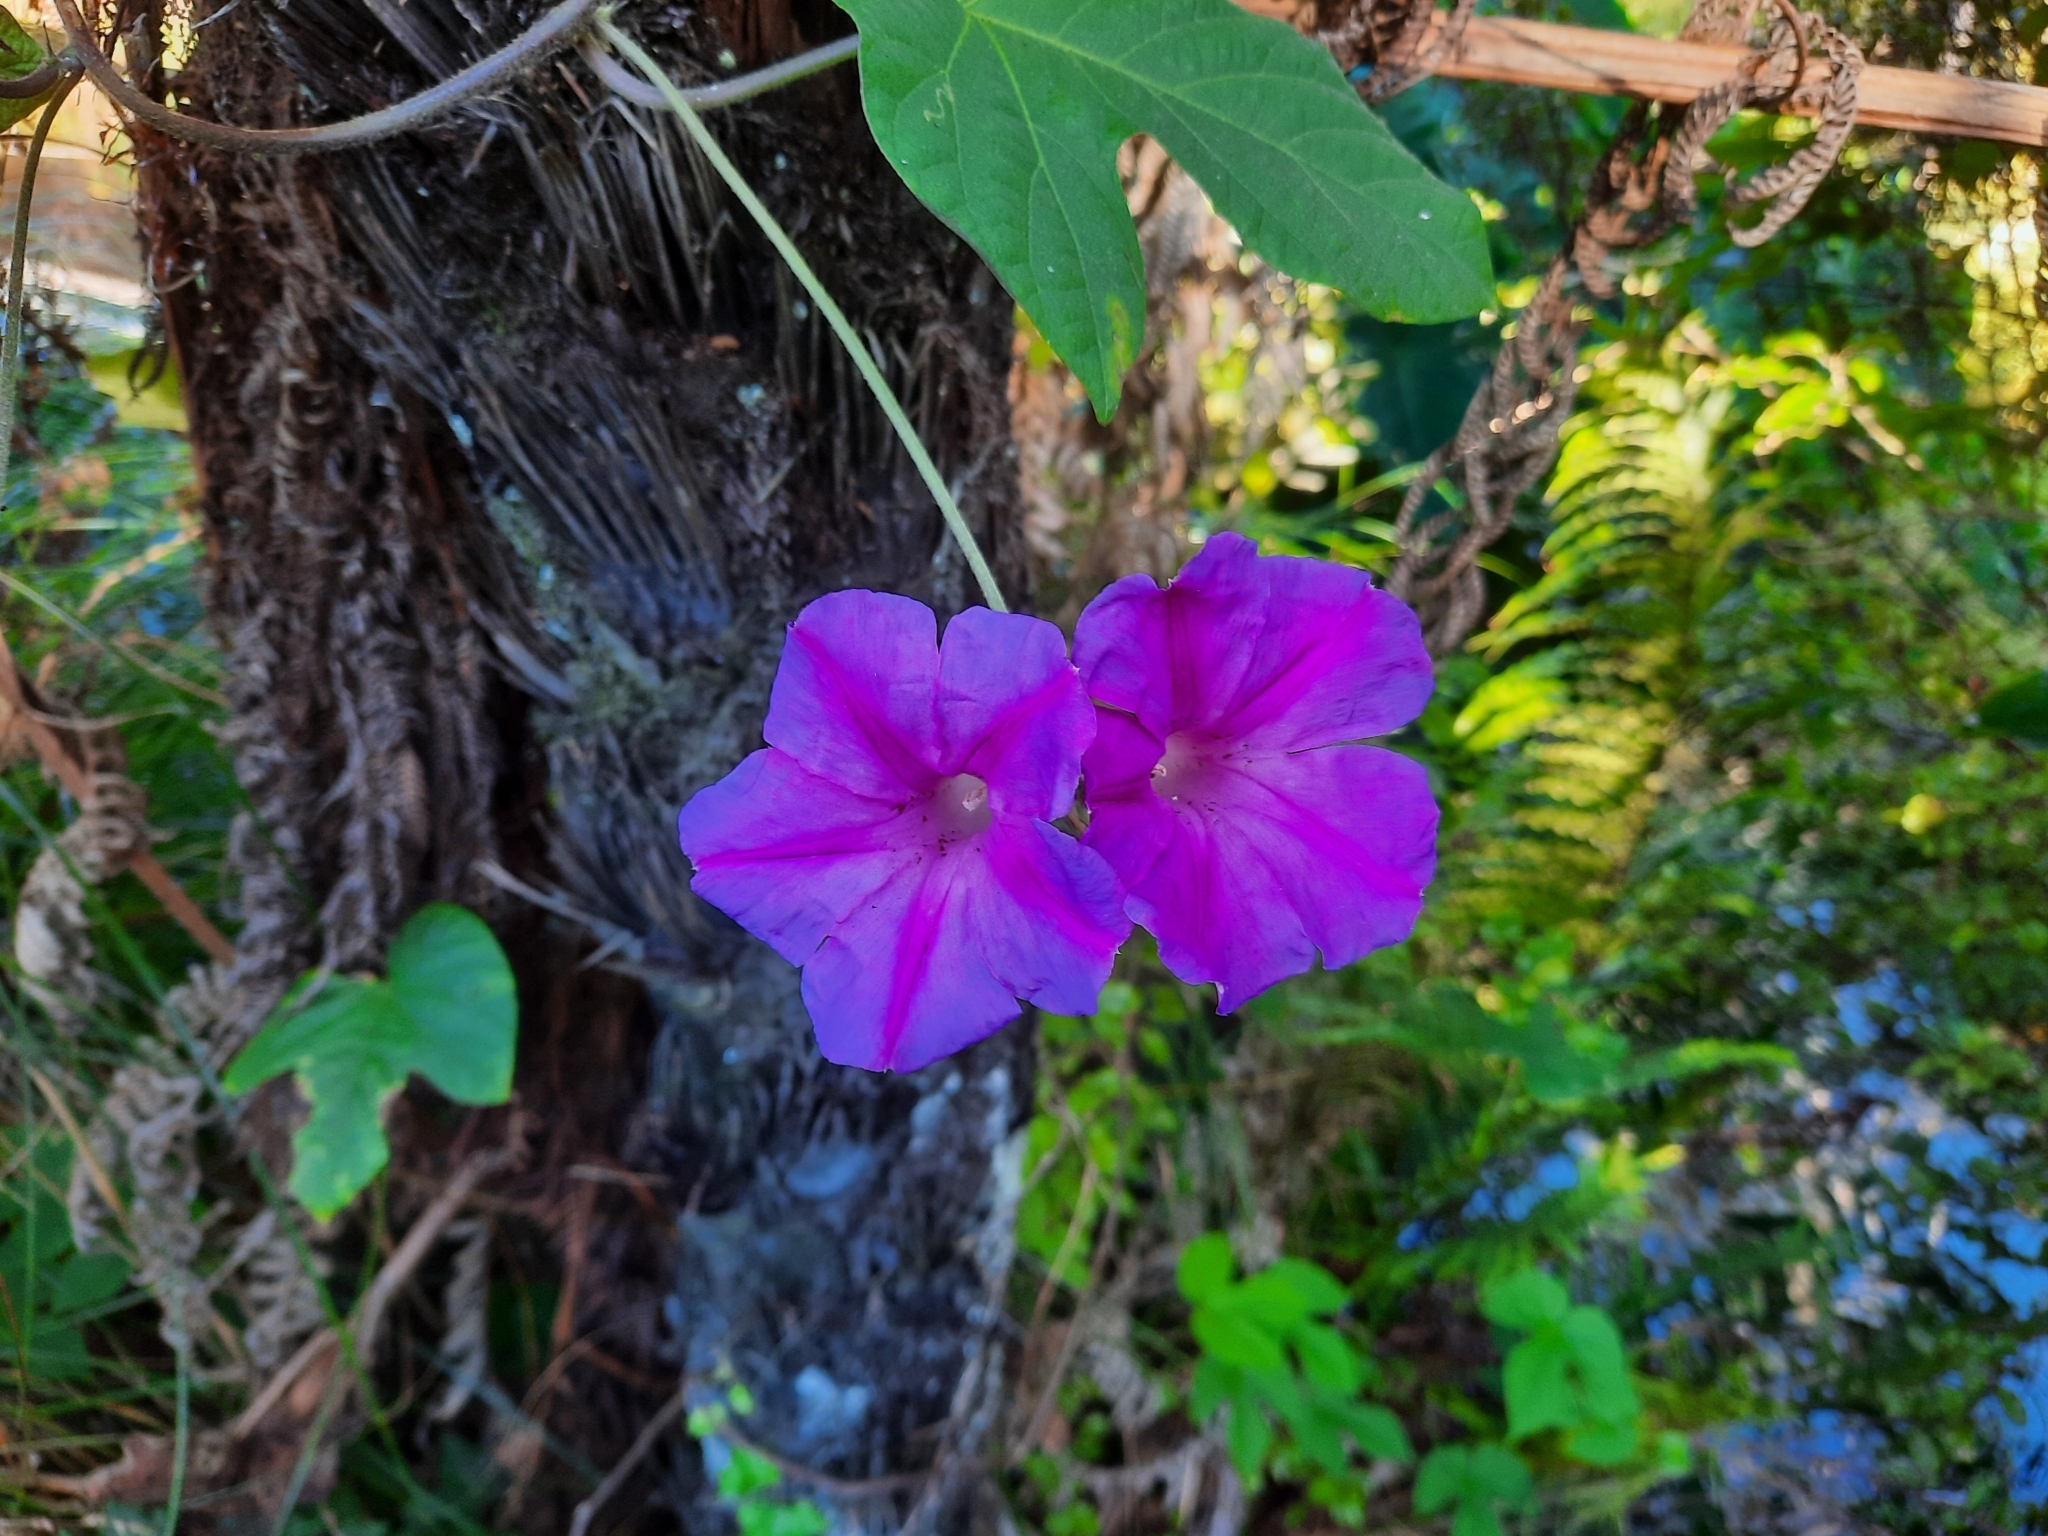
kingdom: Plantae
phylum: Tracheophyta
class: Magnoliopsida
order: Solanales
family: Convolvulaceae
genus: Ipomoea
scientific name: Ipomoea indica
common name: Blue dawnflower
